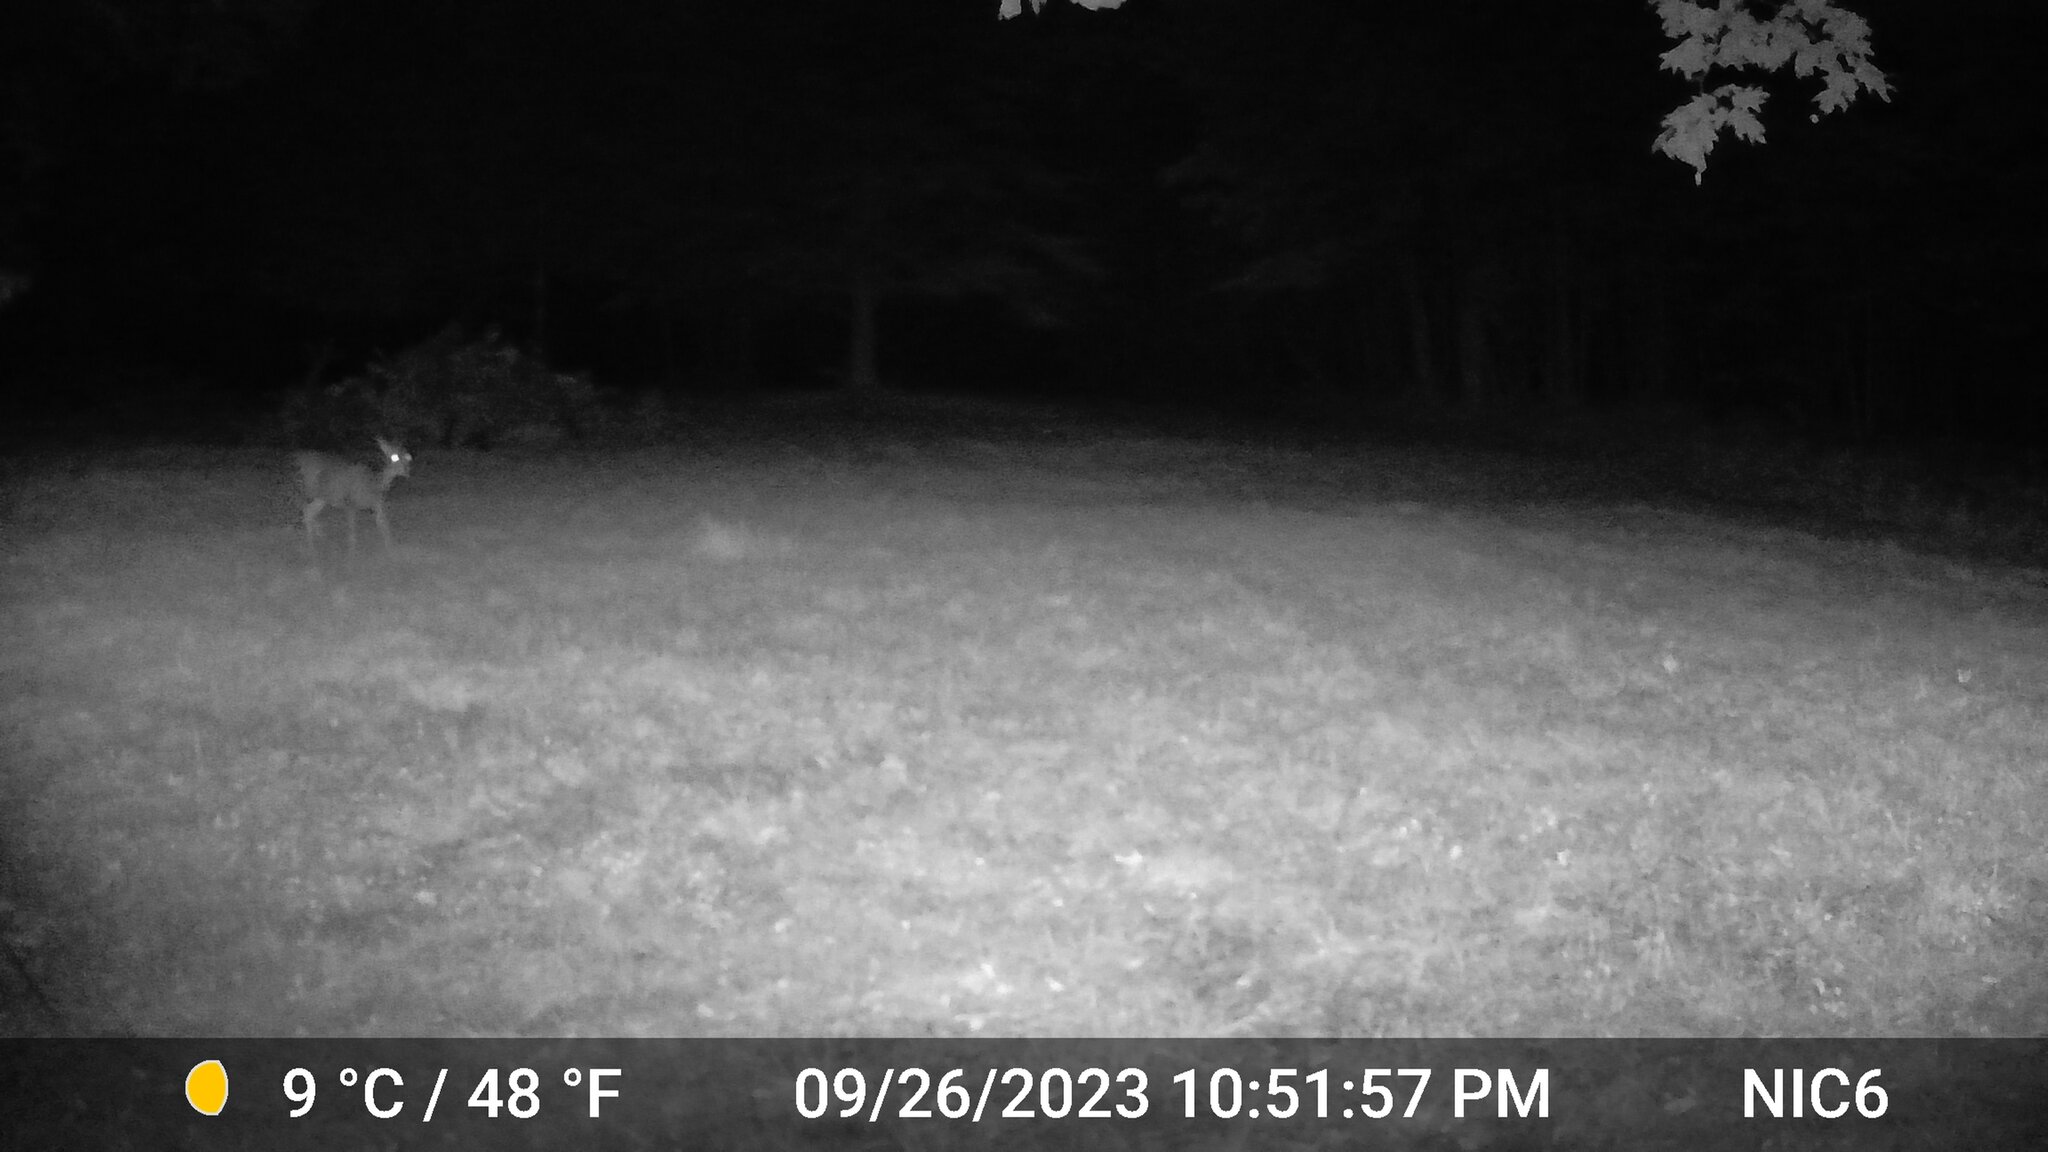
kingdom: Animalia
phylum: Chordata
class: Mammalia
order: Artiodactyla
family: Cervidae
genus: Odocoileus
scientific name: Odocoileus virginianus
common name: White-tailed deer
